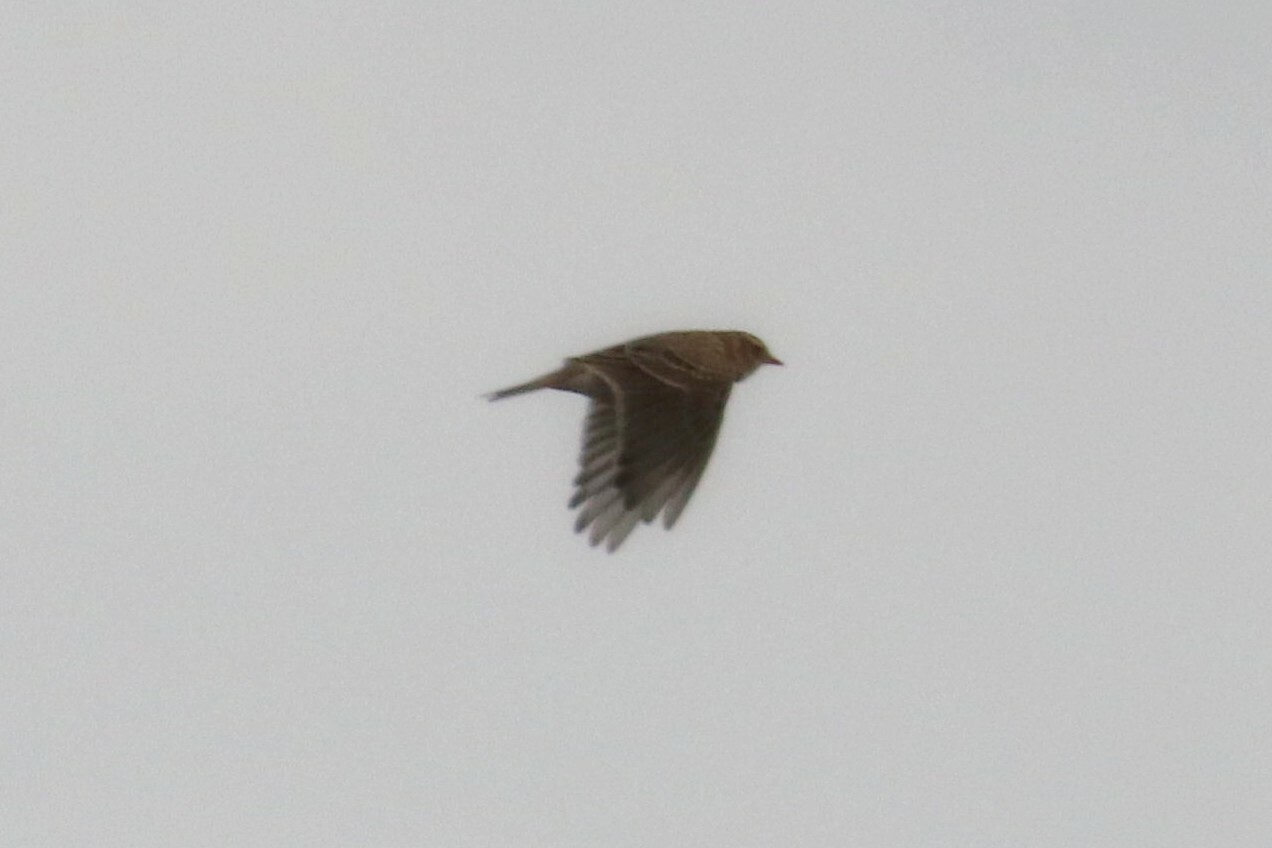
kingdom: Animalia
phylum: Chordata
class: Aves
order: Passeriformes
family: Alaudidae
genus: Alauda
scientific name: Alauda arvensis
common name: Eurasian skylark
